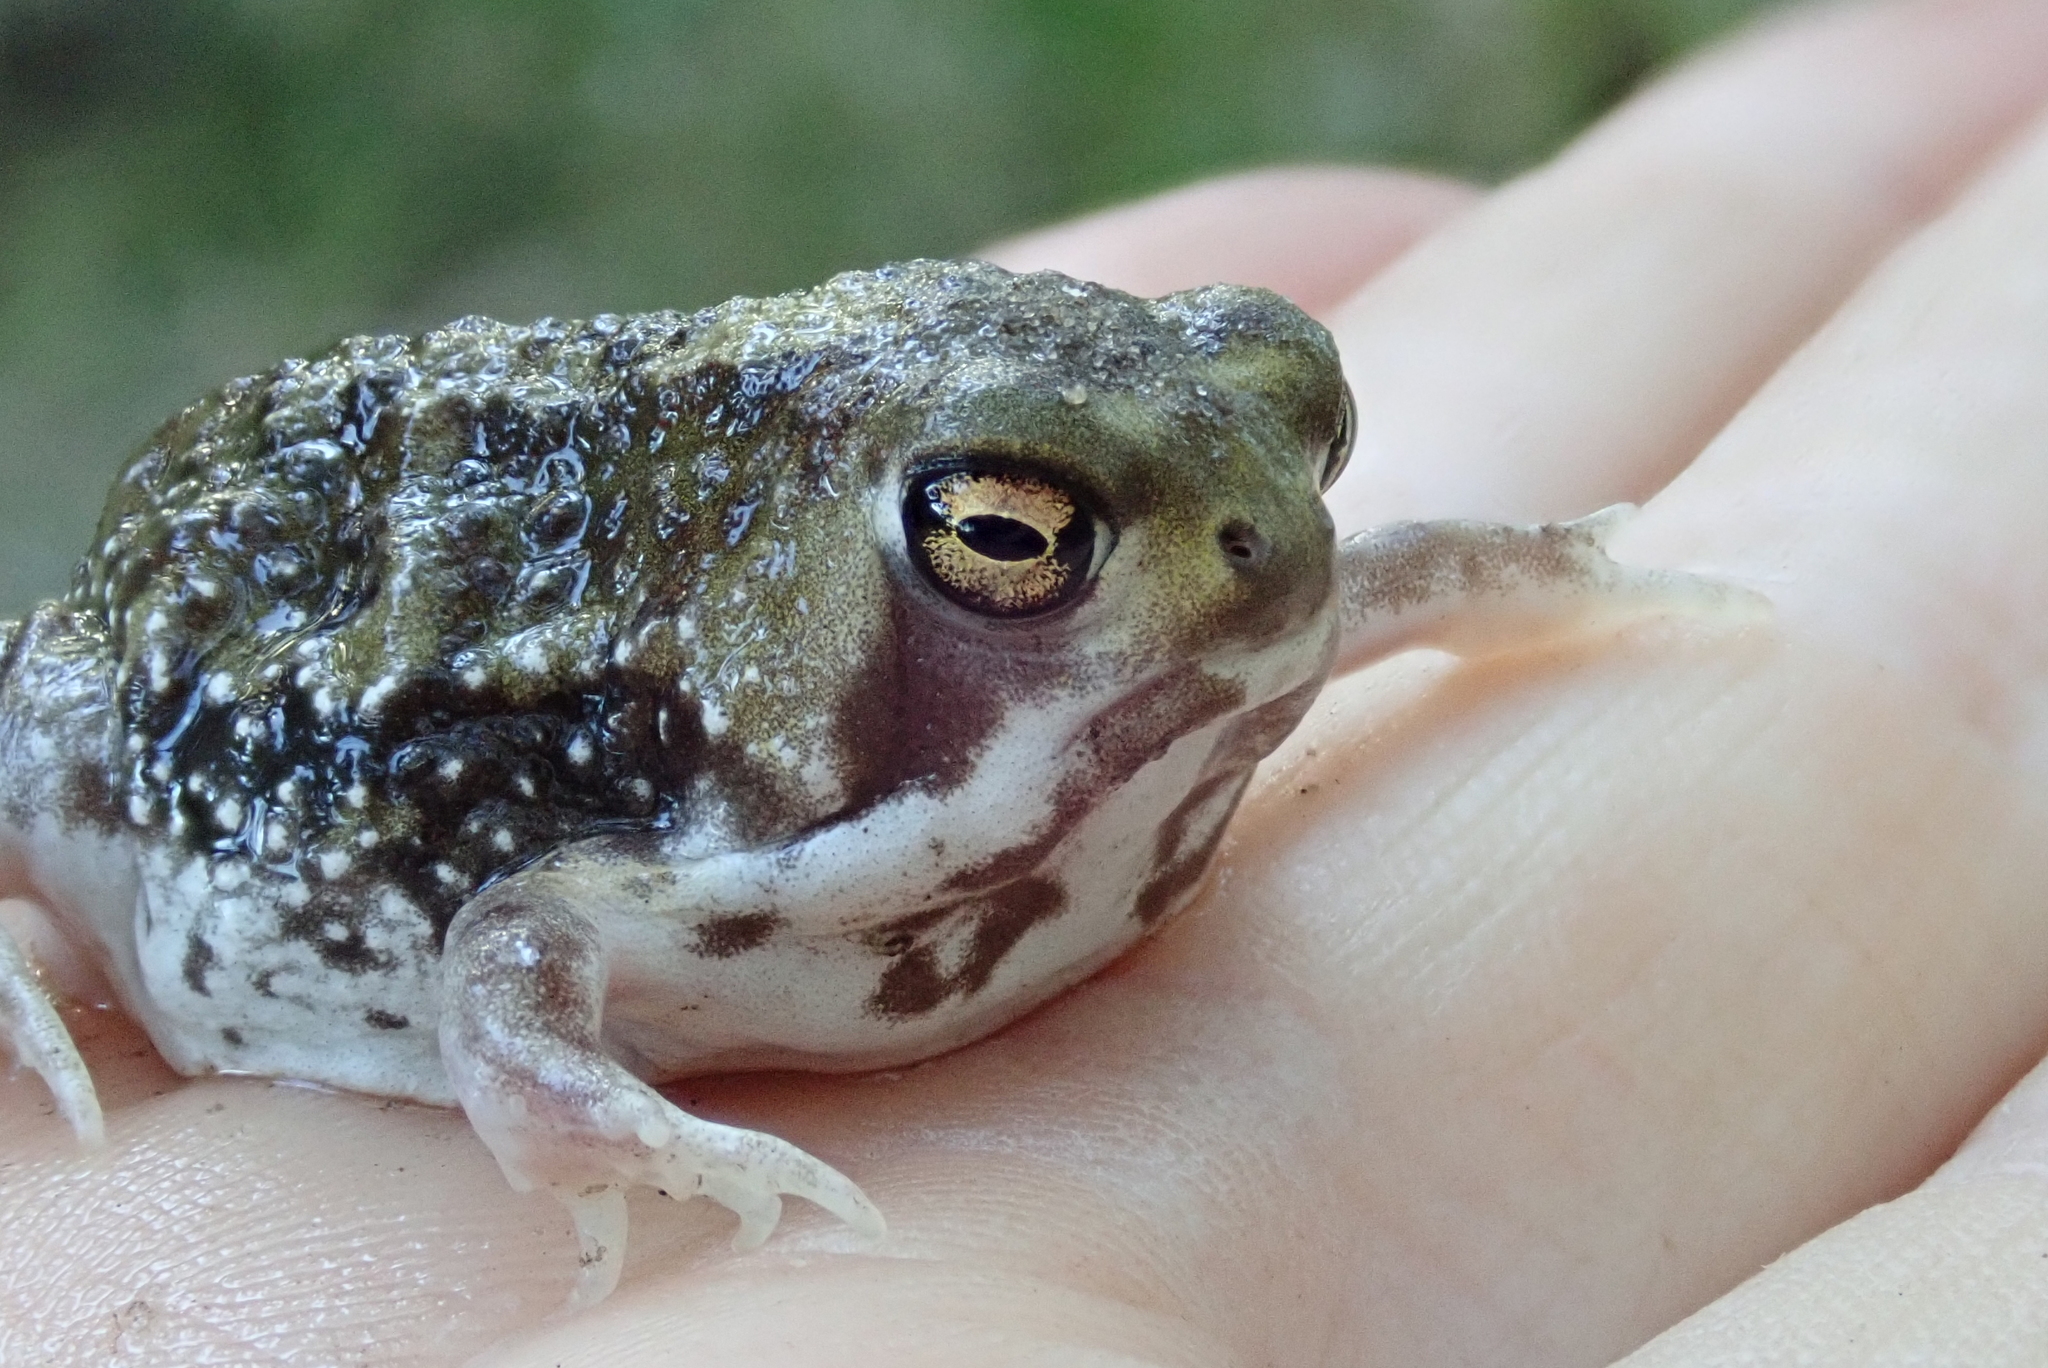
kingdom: Animalia
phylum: Chordata
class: Amphibia
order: Anura
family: Brevicipitidae
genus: Breviceps
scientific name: Breviceps adspersus
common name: Common rain frog
